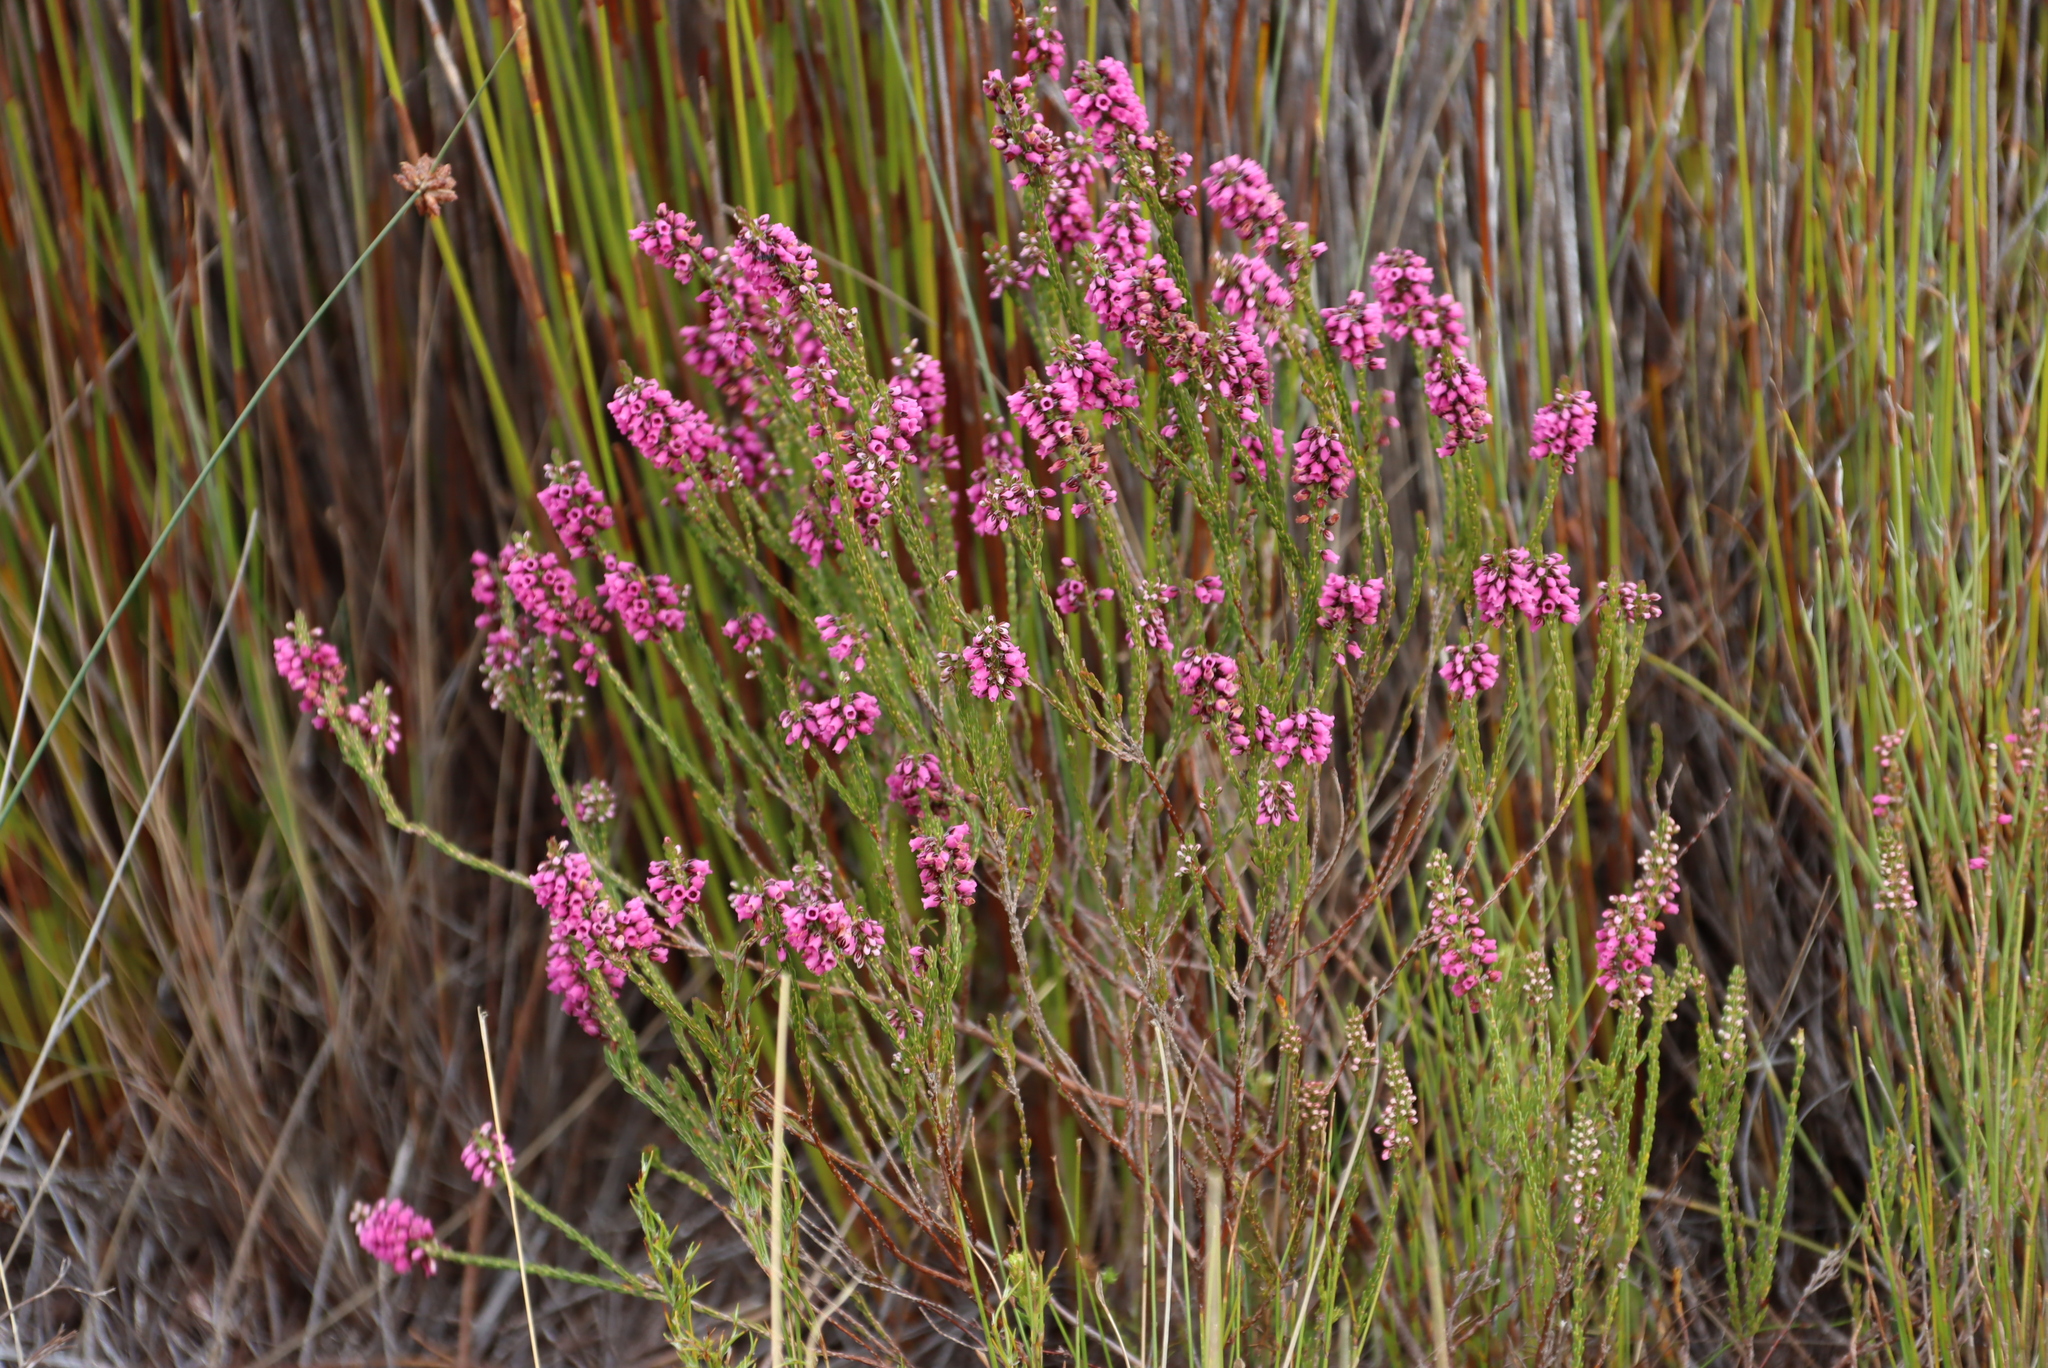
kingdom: Plantae
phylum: Tracheophyta
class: Magnoliopsida
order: Ericales
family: Ericaceae
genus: Erica
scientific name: Erica pulchella
